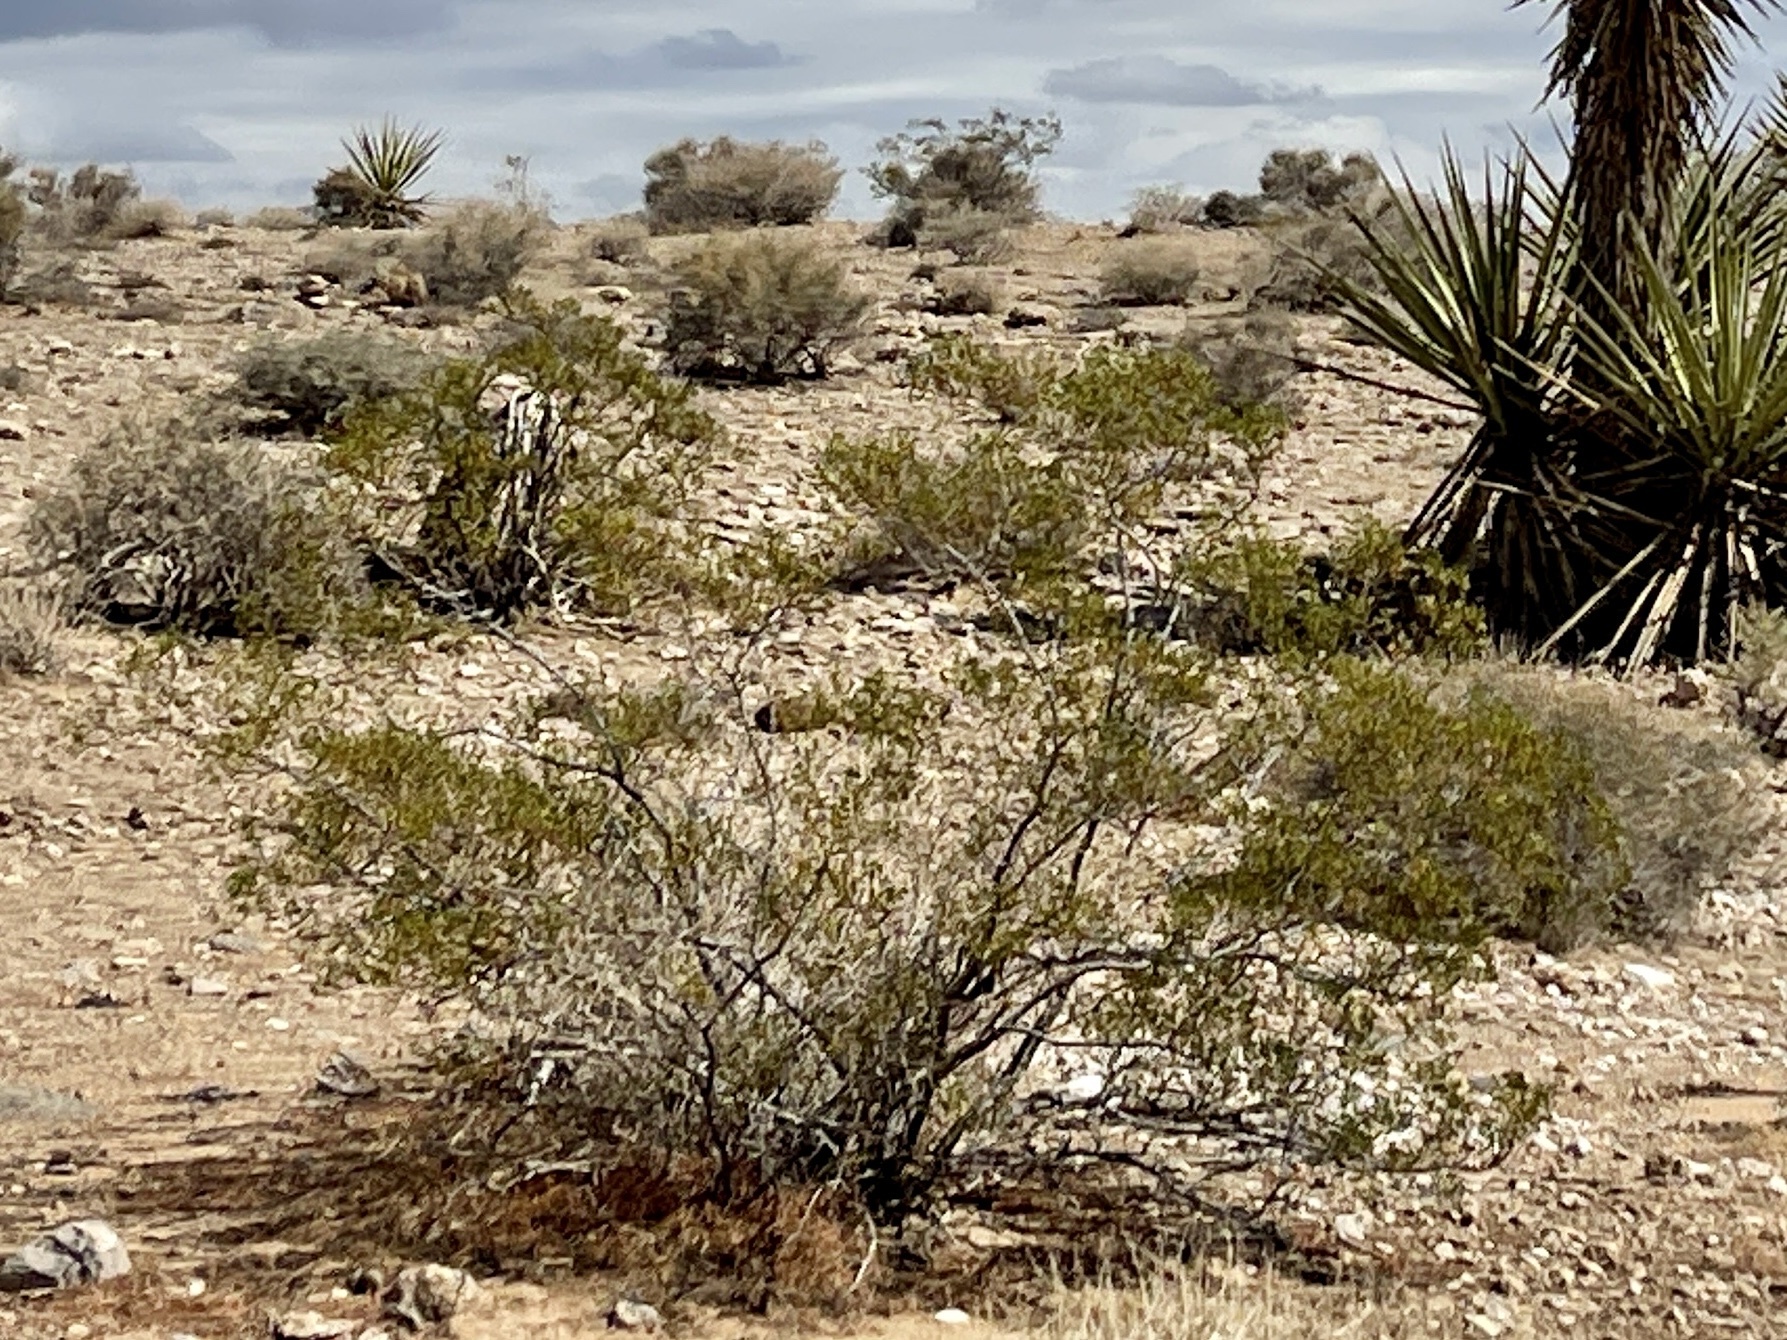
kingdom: Plantae
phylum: Tracheophyta
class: Magnoliopsida
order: Zygophyllales
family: Zygophyllaceae
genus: Larrea
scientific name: Larrea tridentata
